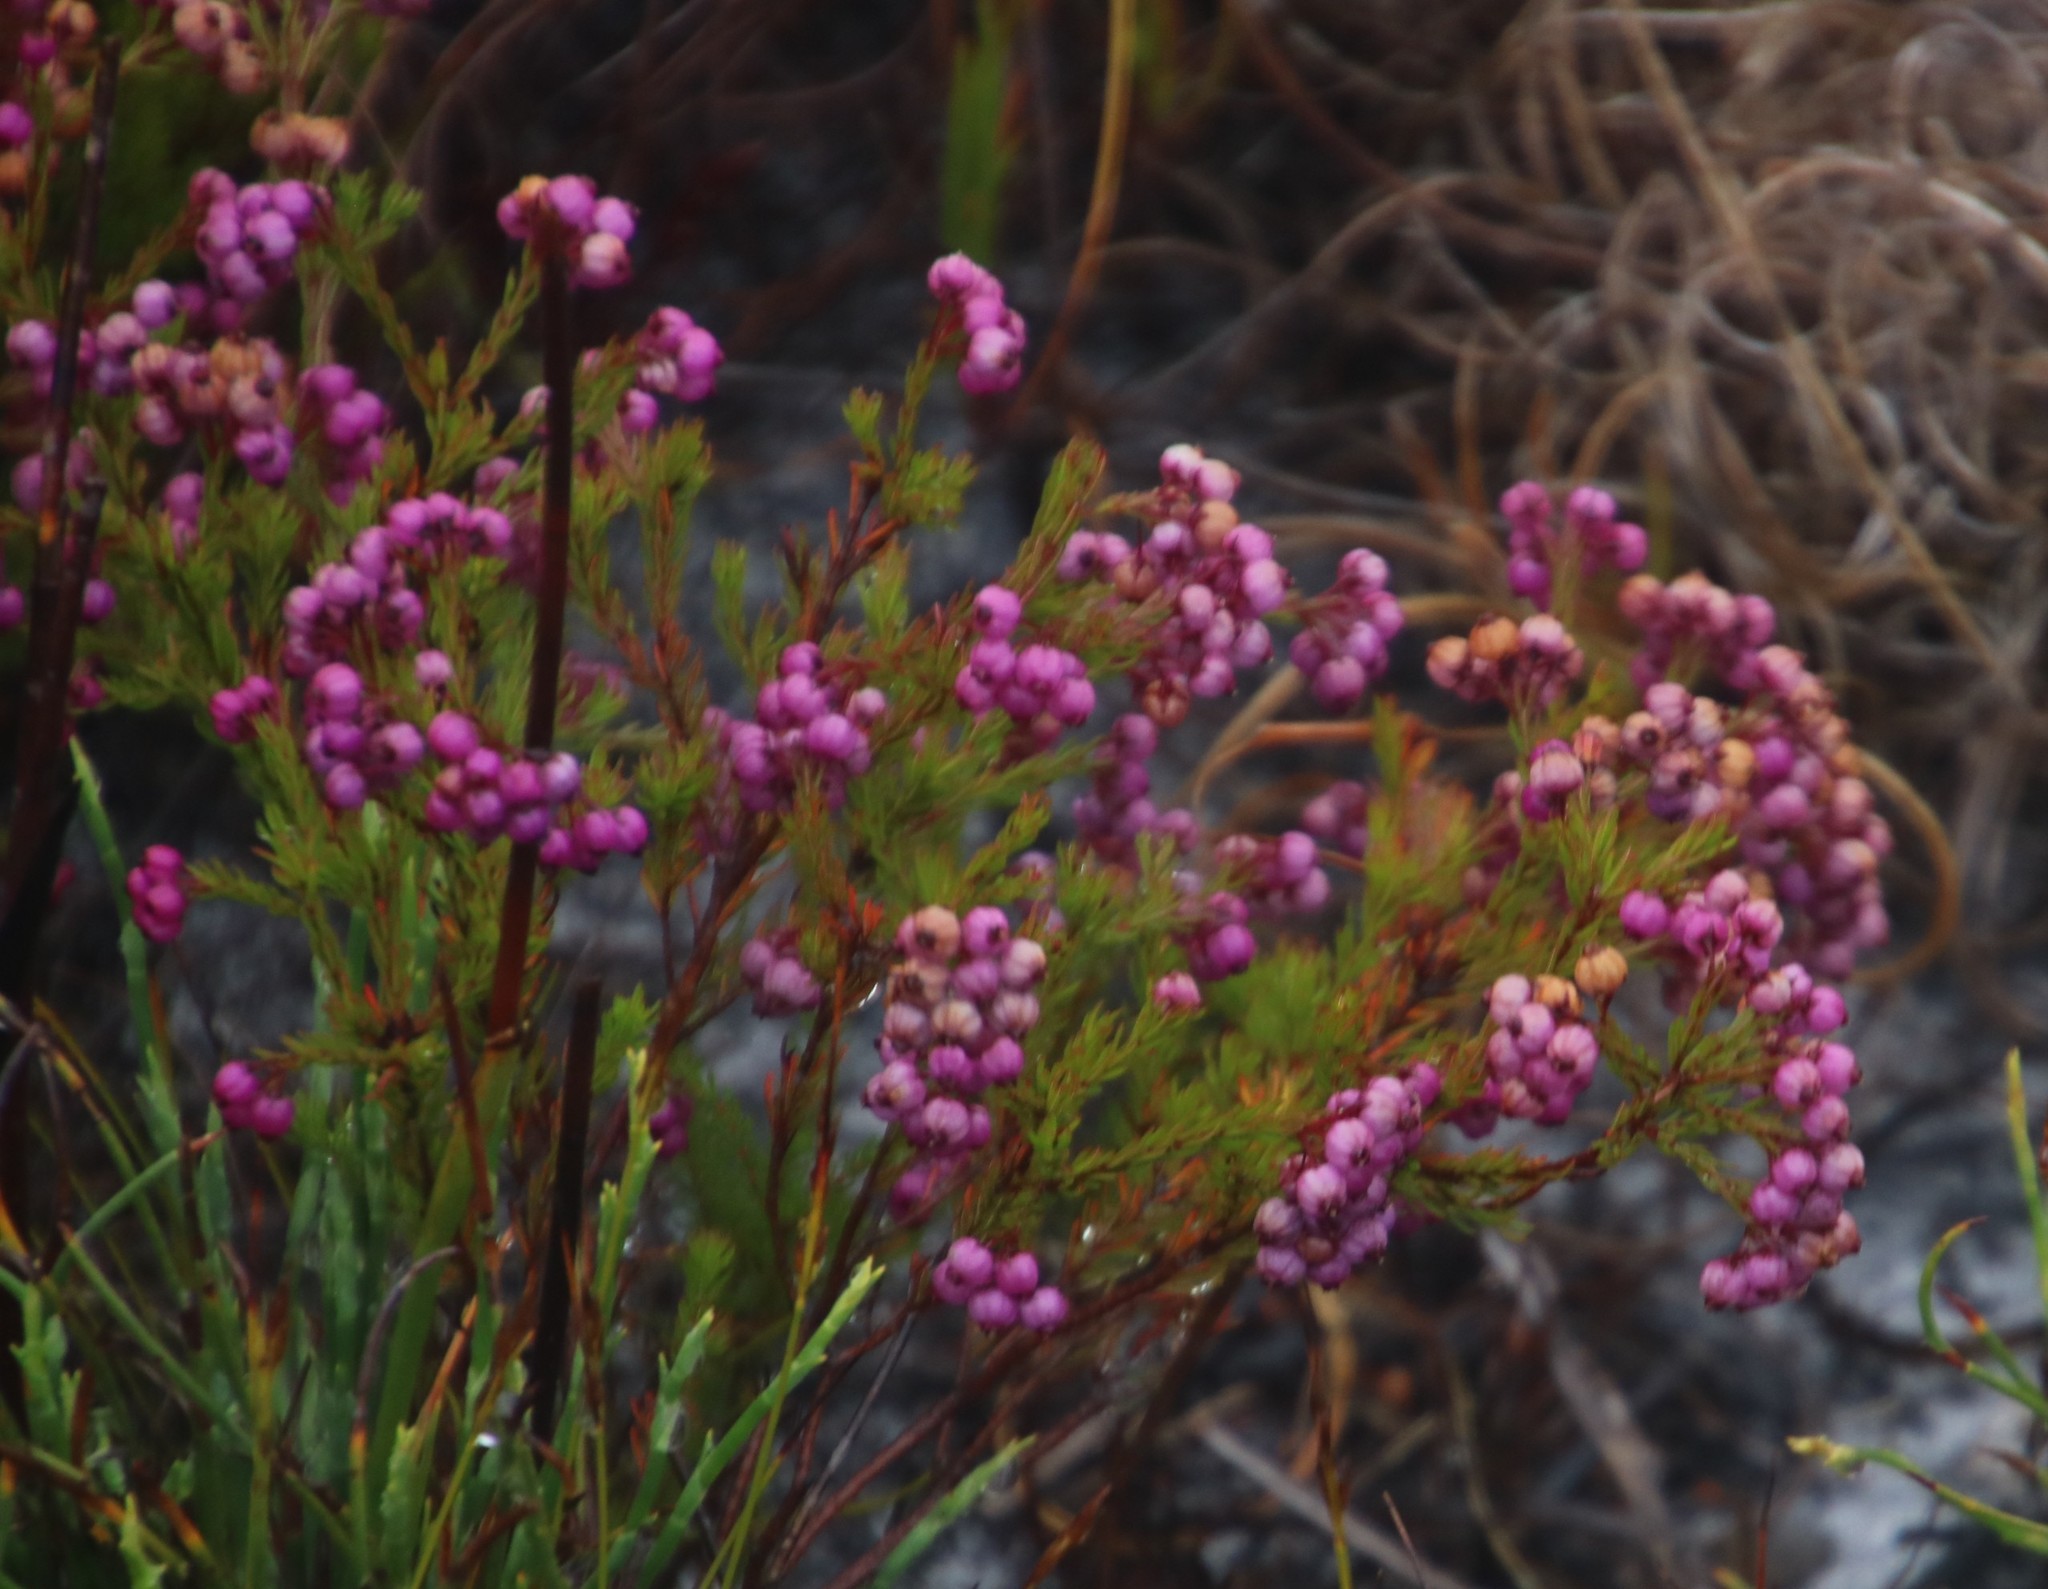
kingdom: Plantae
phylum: Tracheophyta
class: Magnoliopsida
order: Ericales
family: Ericaceae
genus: Erica
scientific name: Erica multumbellifera
